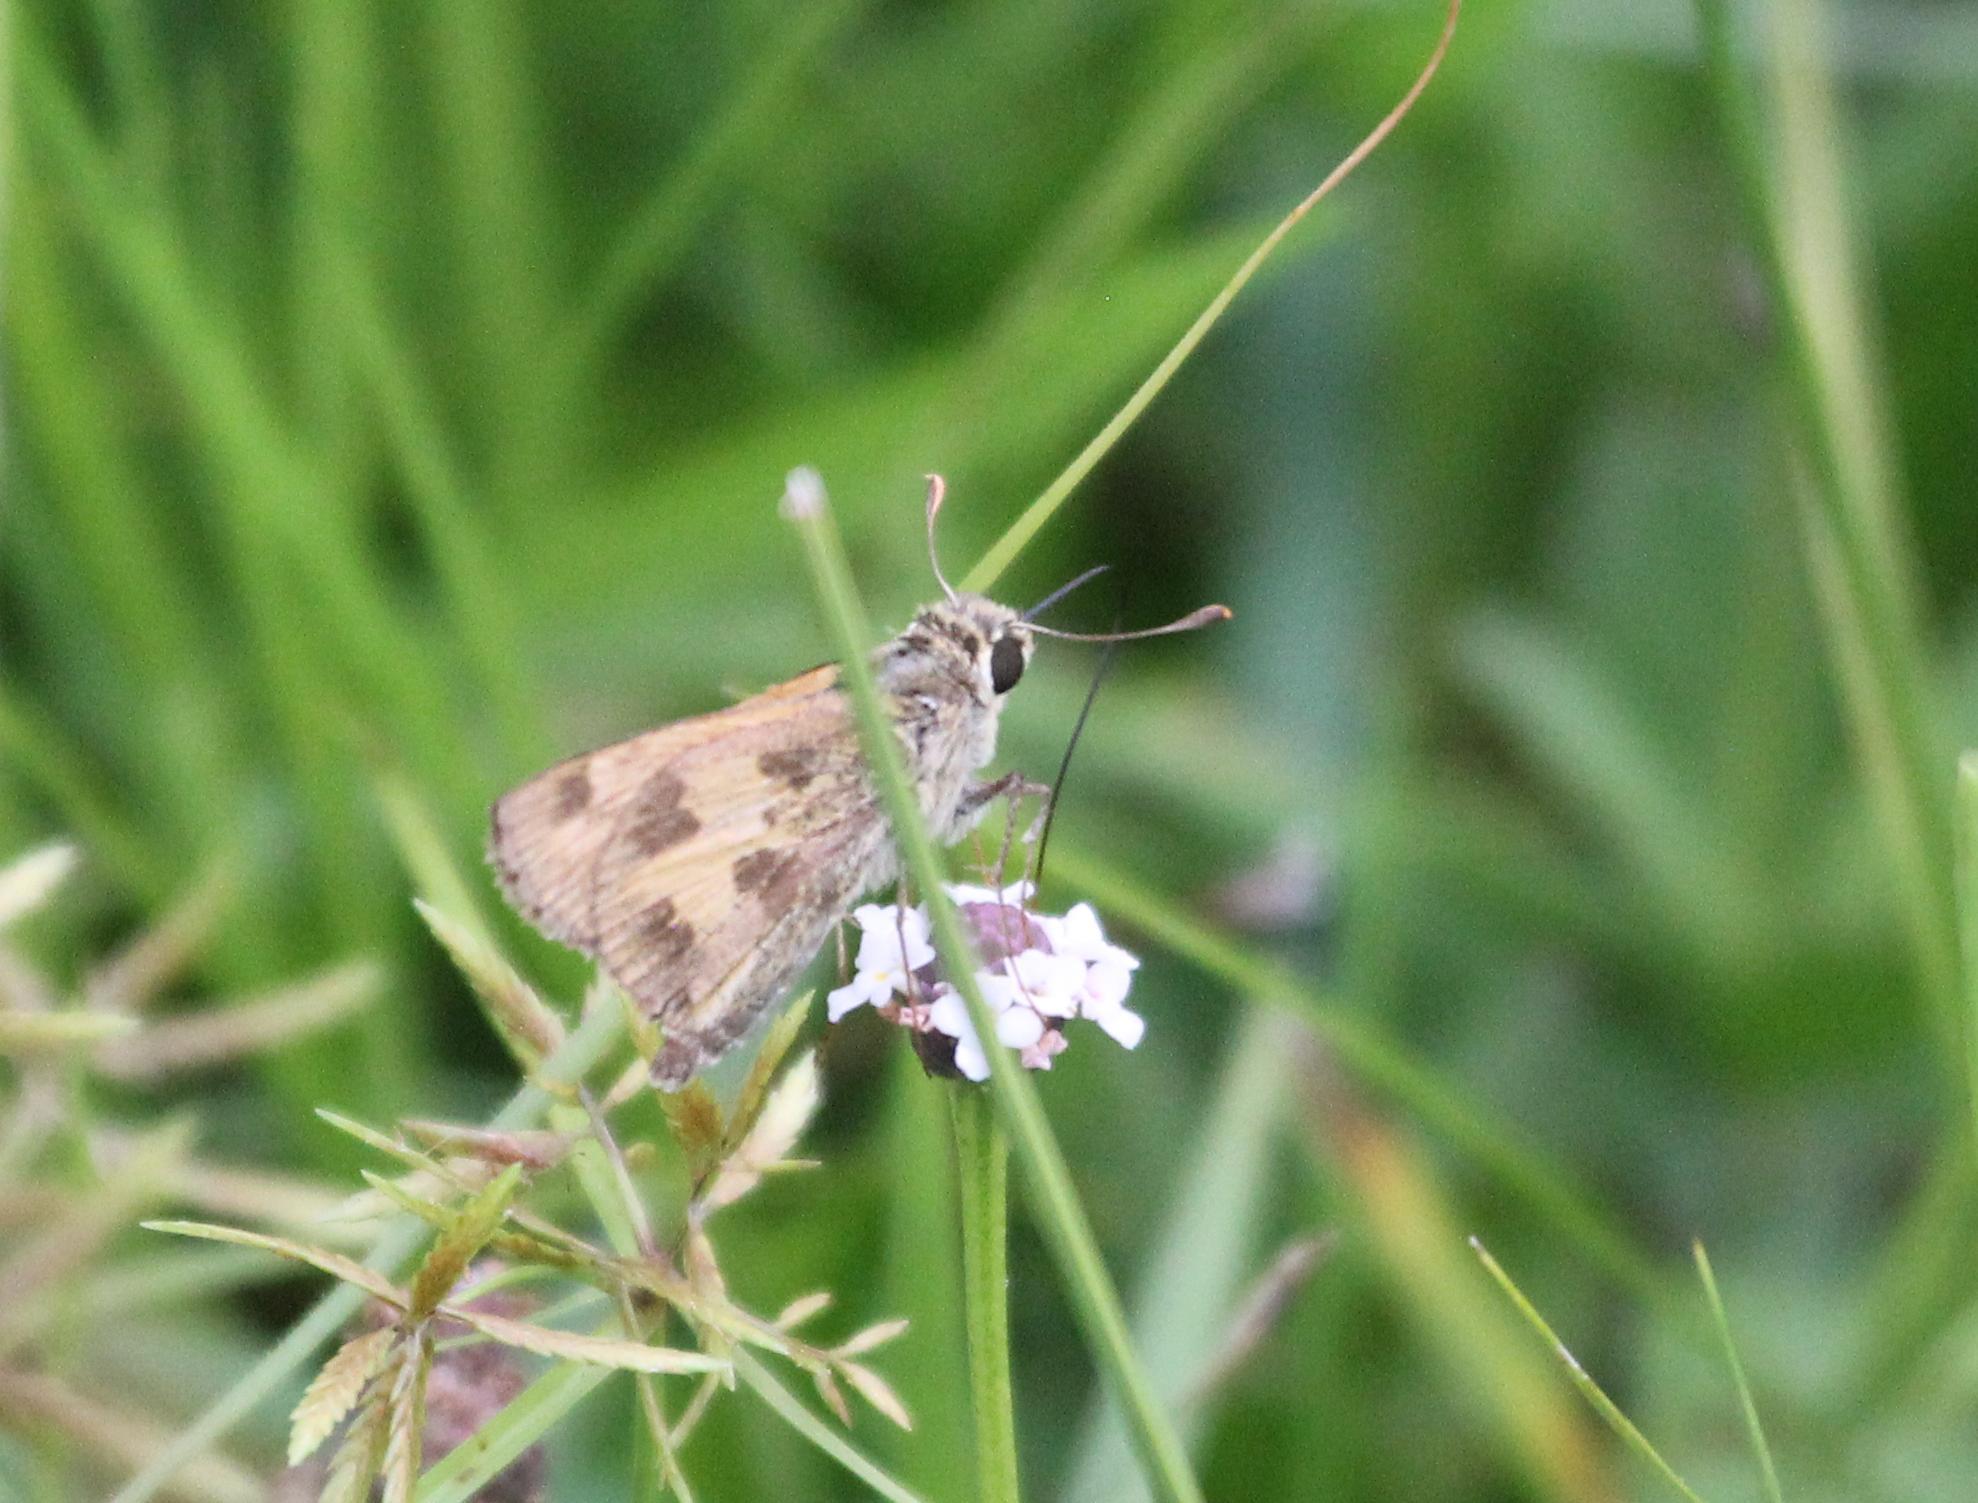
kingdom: Animalia
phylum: Arthropoda
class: Insecta
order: Lepidoptera
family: Hesperiidae
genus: Polites
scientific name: Polites vibex
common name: Whirlabout
